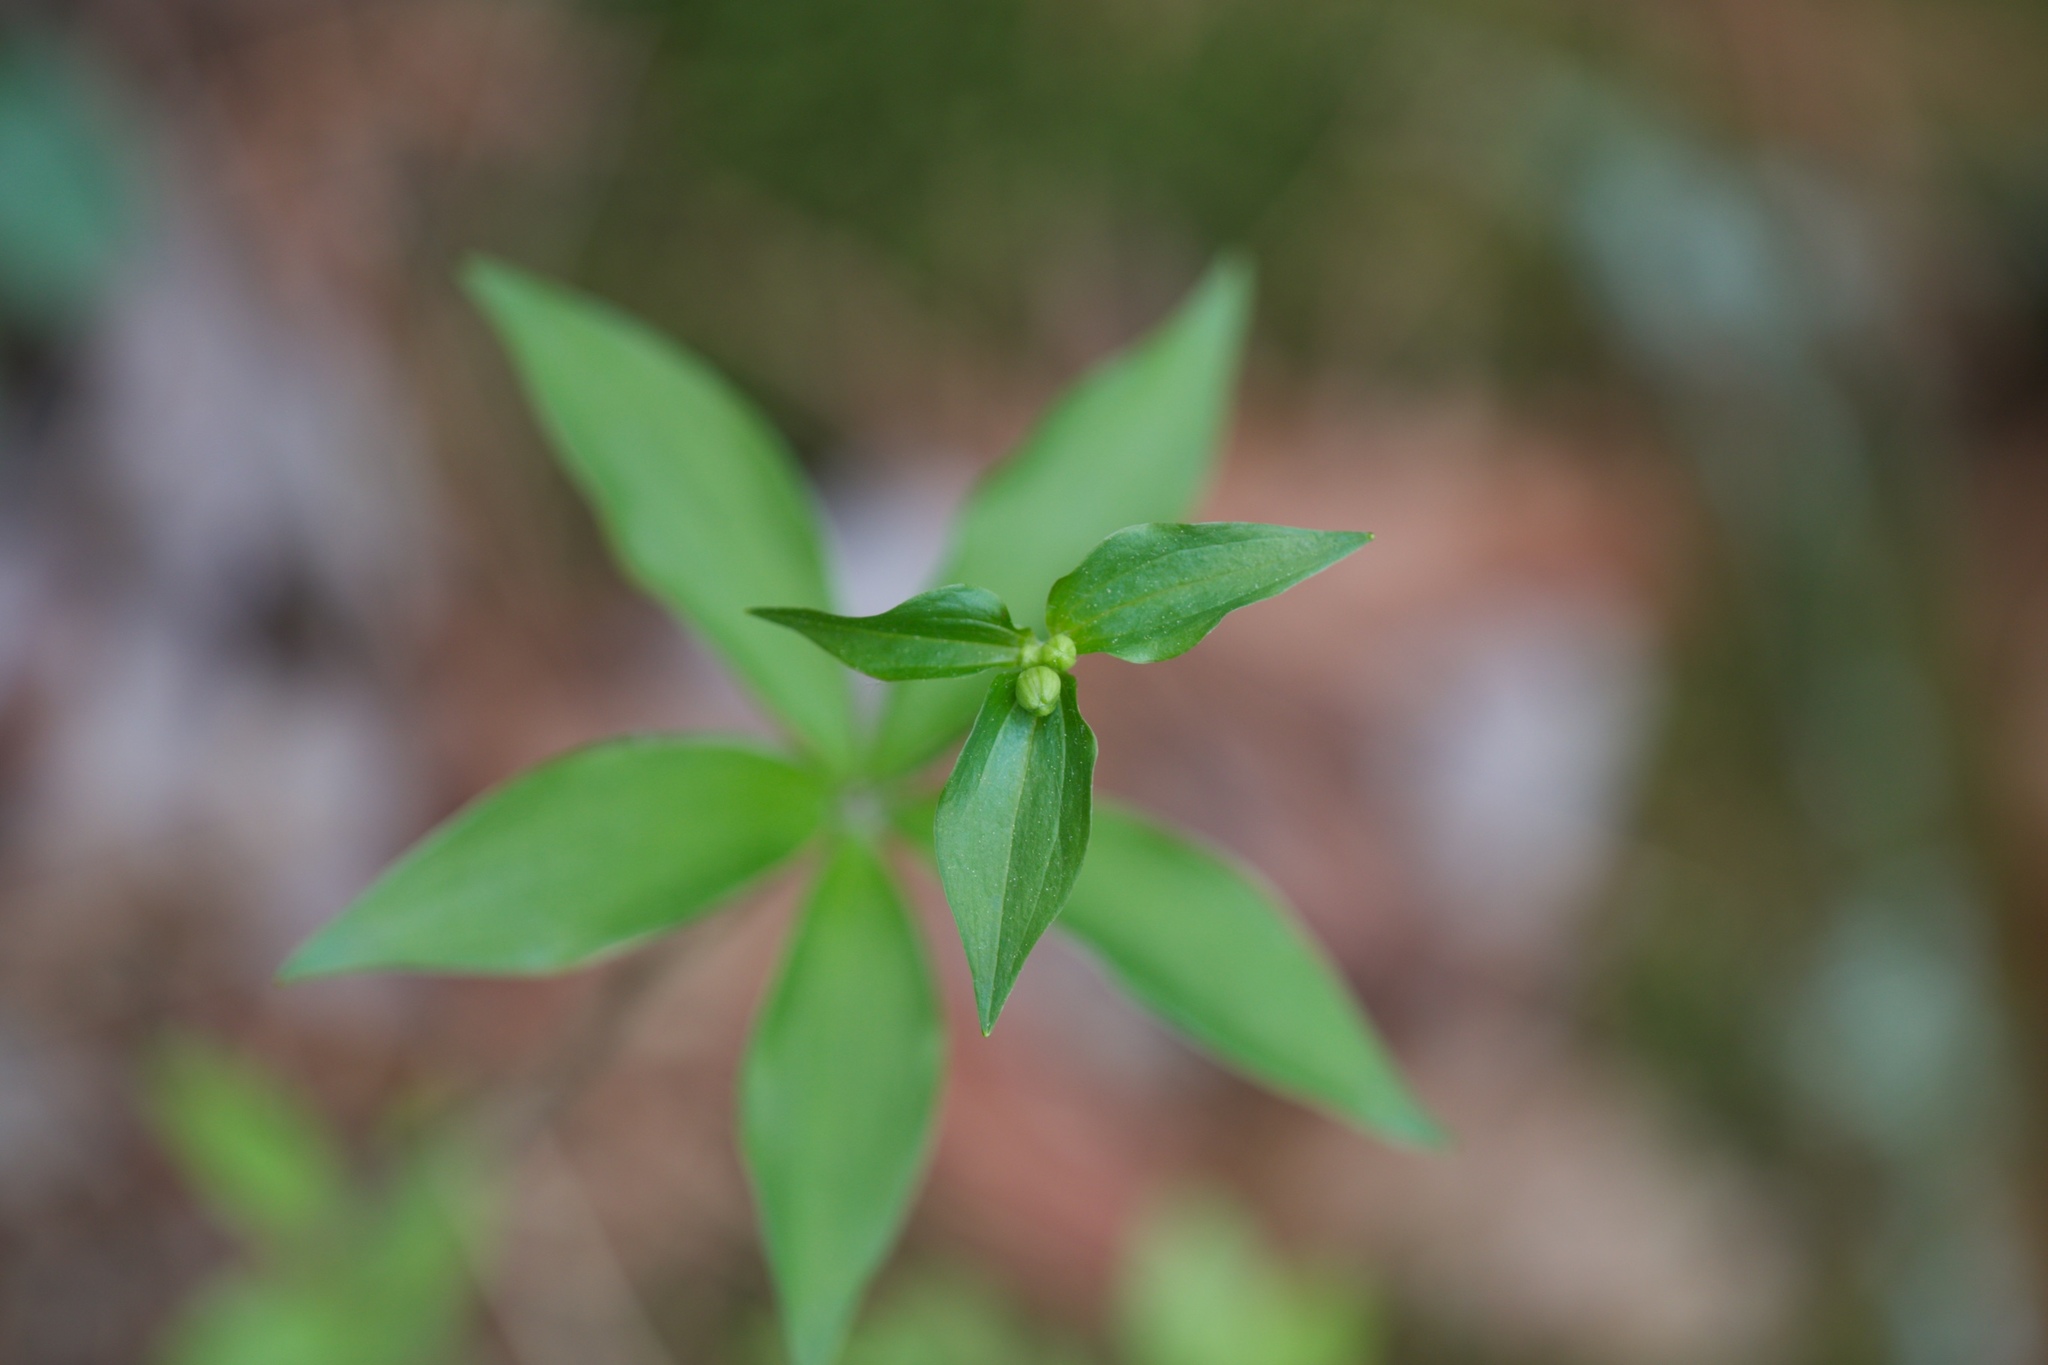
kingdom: Plantae
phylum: Tracheophyta
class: Liliopsida
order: Liliales
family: Liliaceae
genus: Medeola
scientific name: Medeola virginiana
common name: Indian cucumber-root
